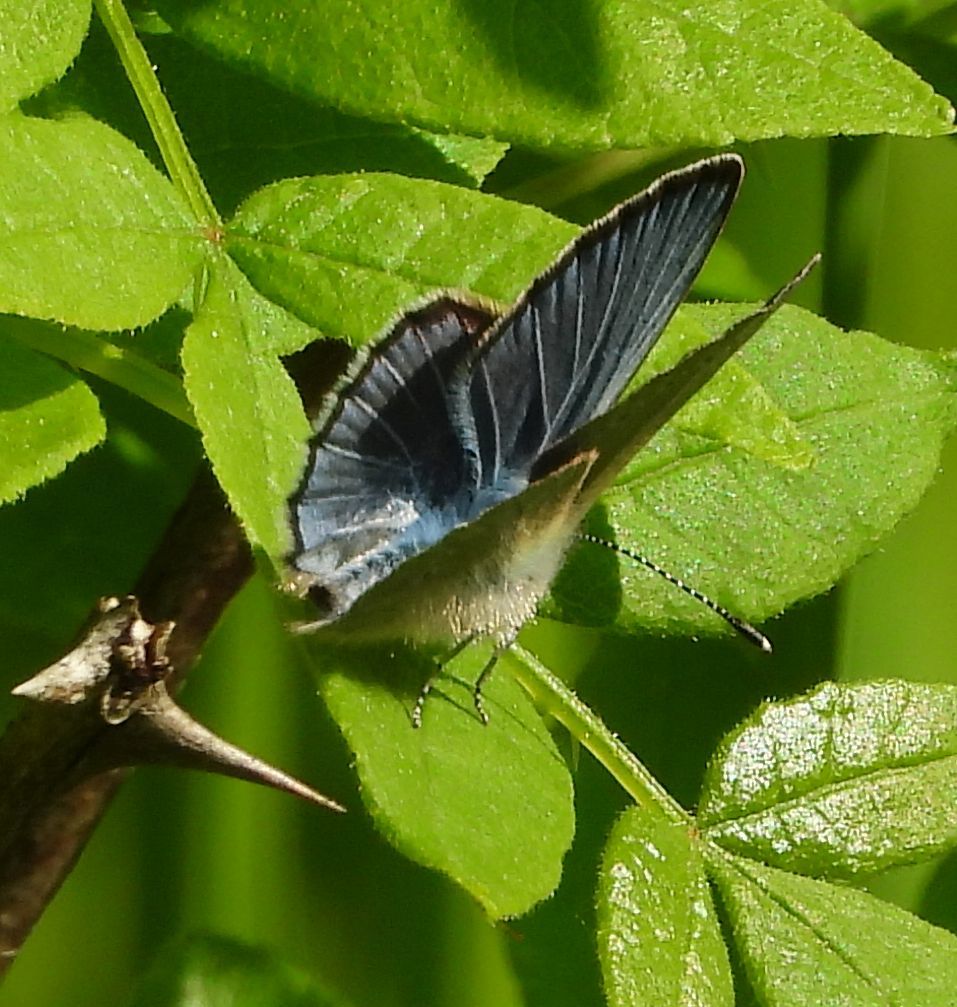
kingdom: Animalia
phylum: Arthropoda
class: Insecta
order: Lepidoptera
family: Lycaenidae
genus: Glaucopsyche
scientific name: Glaucopsyche lygdamus
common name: Silvery blue
